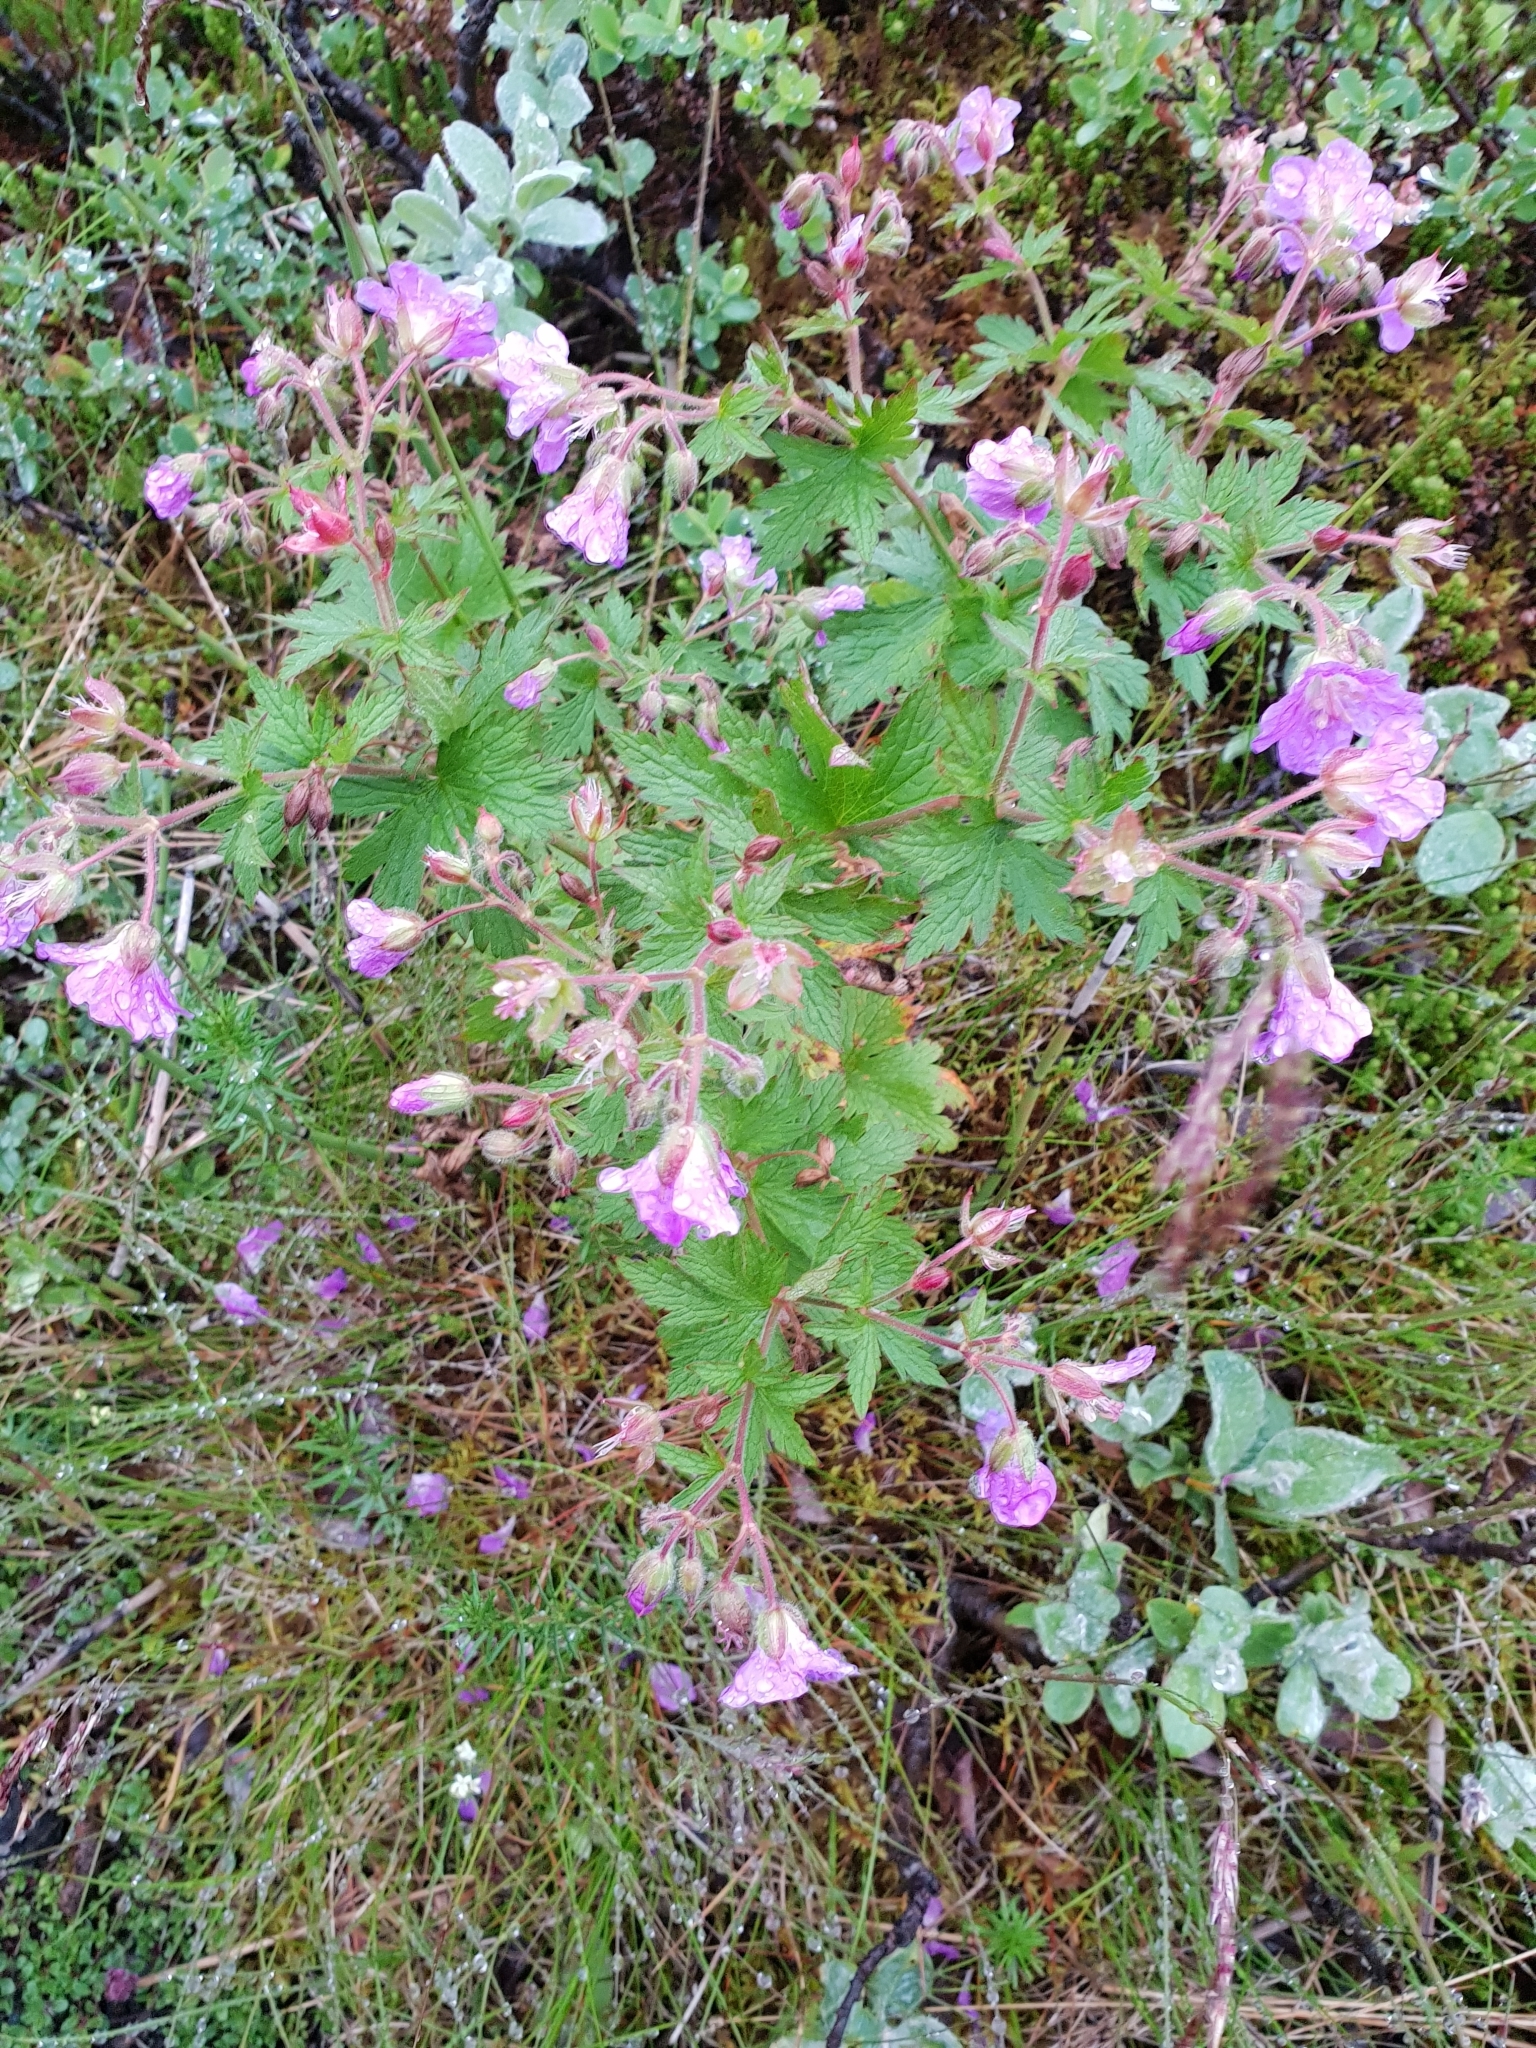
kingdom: Plantae
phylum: Tracheophyta
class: Magnoliopsida
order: Geraniales
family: Geraniaceae
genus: Geranium
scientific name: Geranium sylvaticum
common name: Wood crane's-bill
